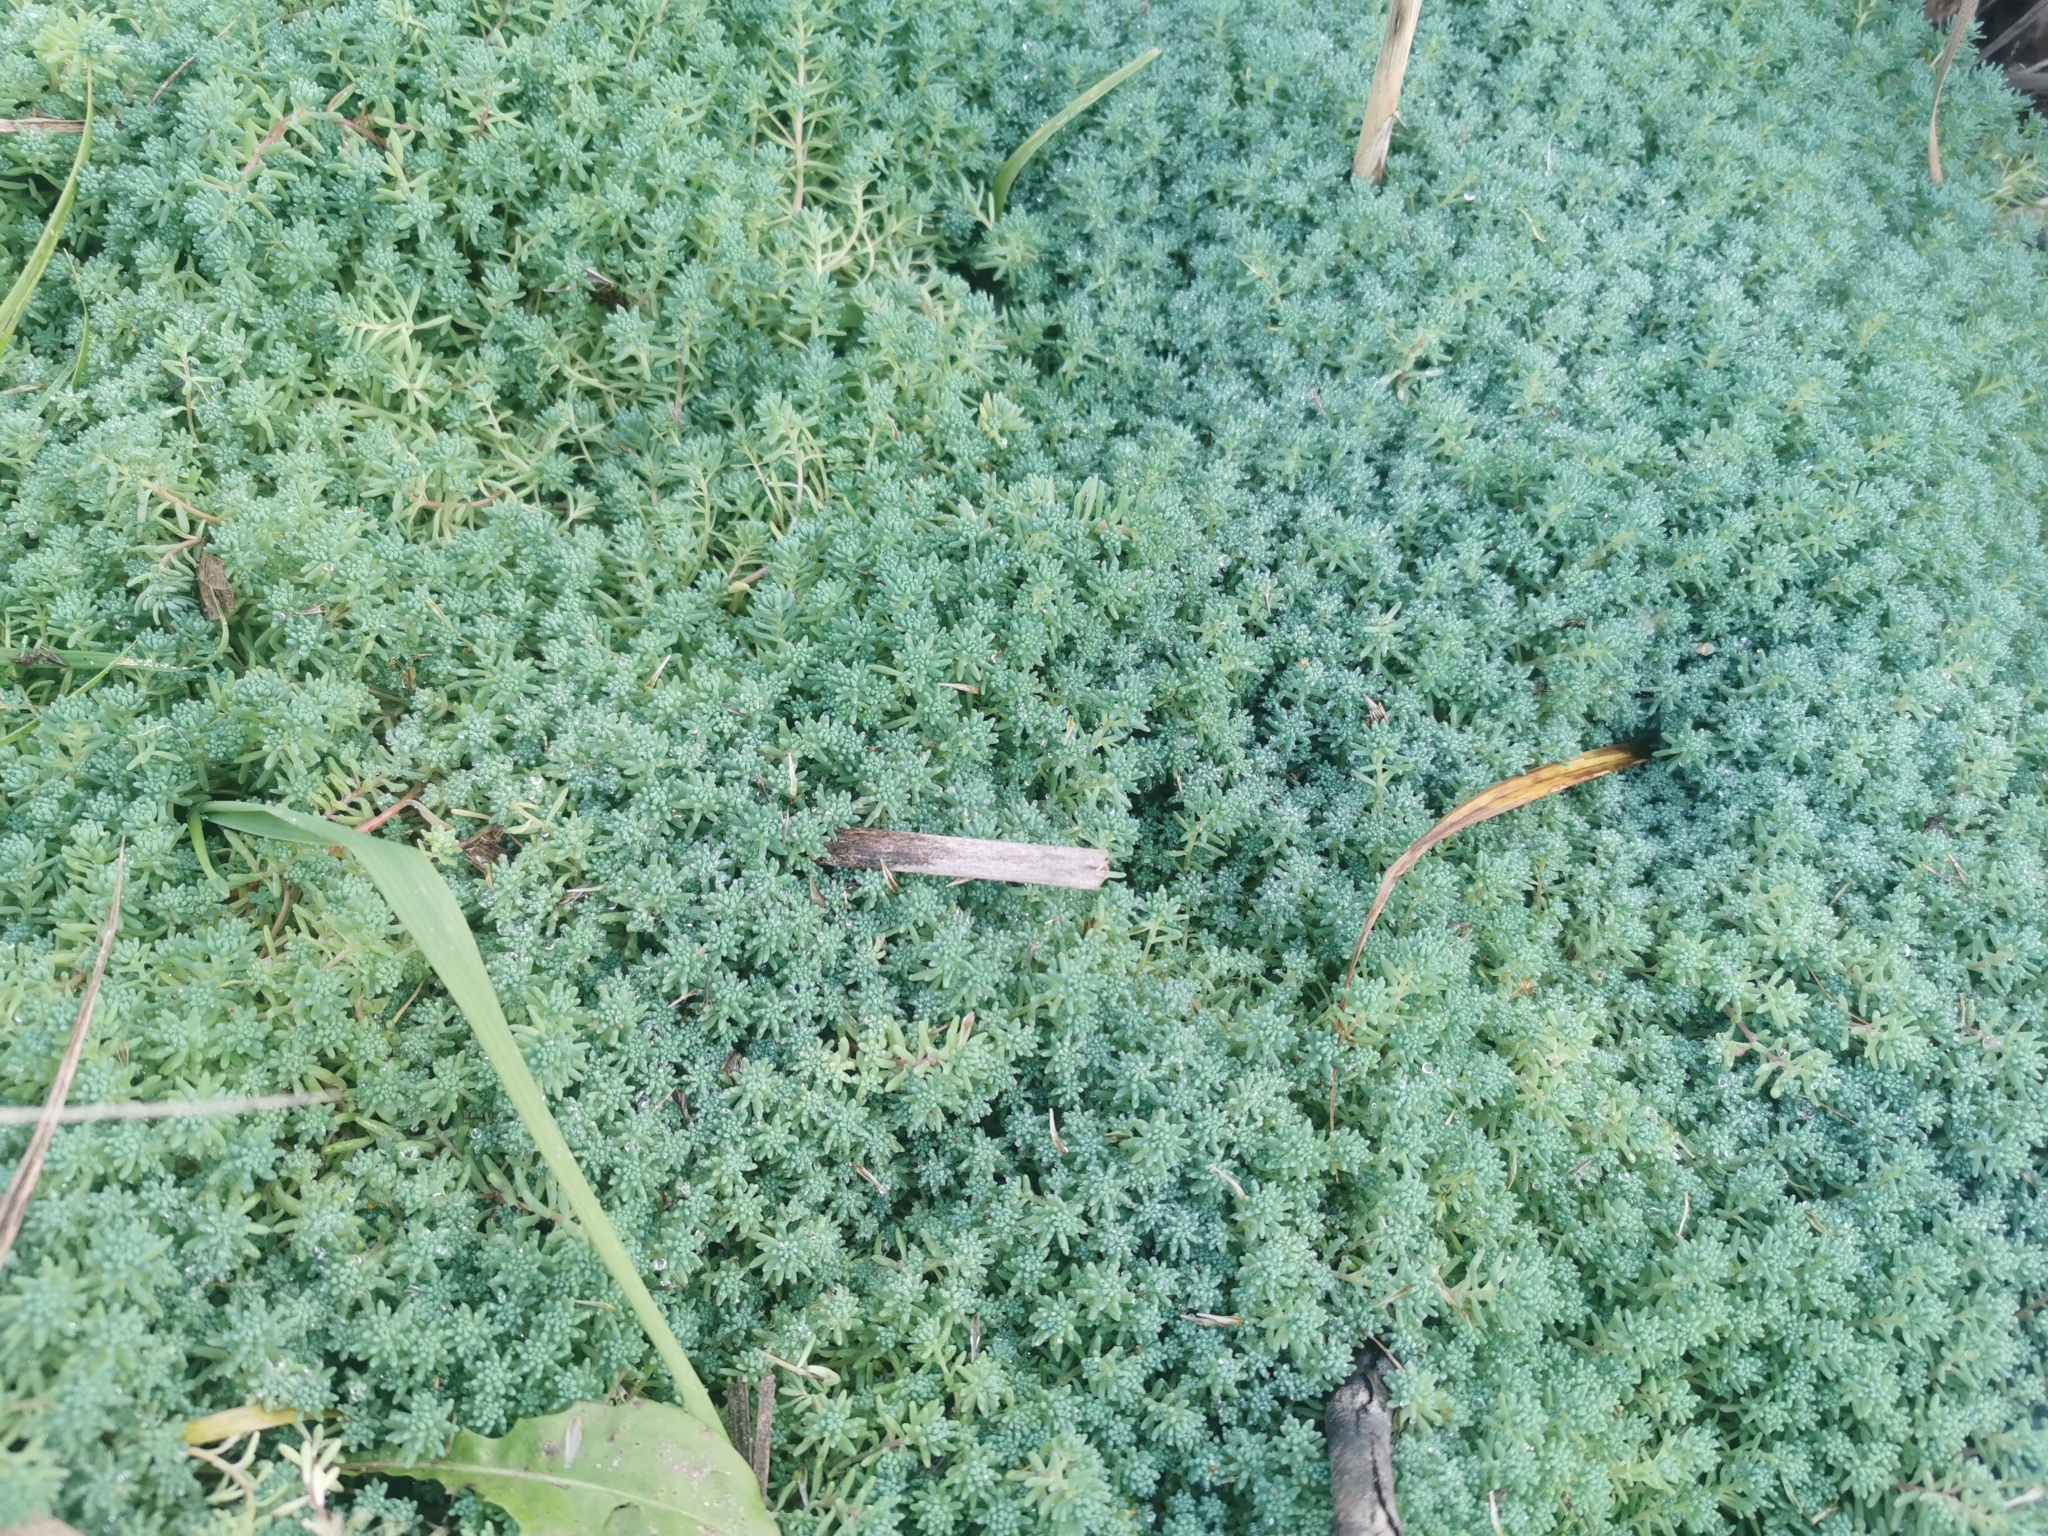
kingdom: Plantae
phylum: Tracheophyta
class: Magnoliopsida
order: Saxifragales
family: Crassulaceae
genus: Sedum
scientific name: Sedum pallidum
